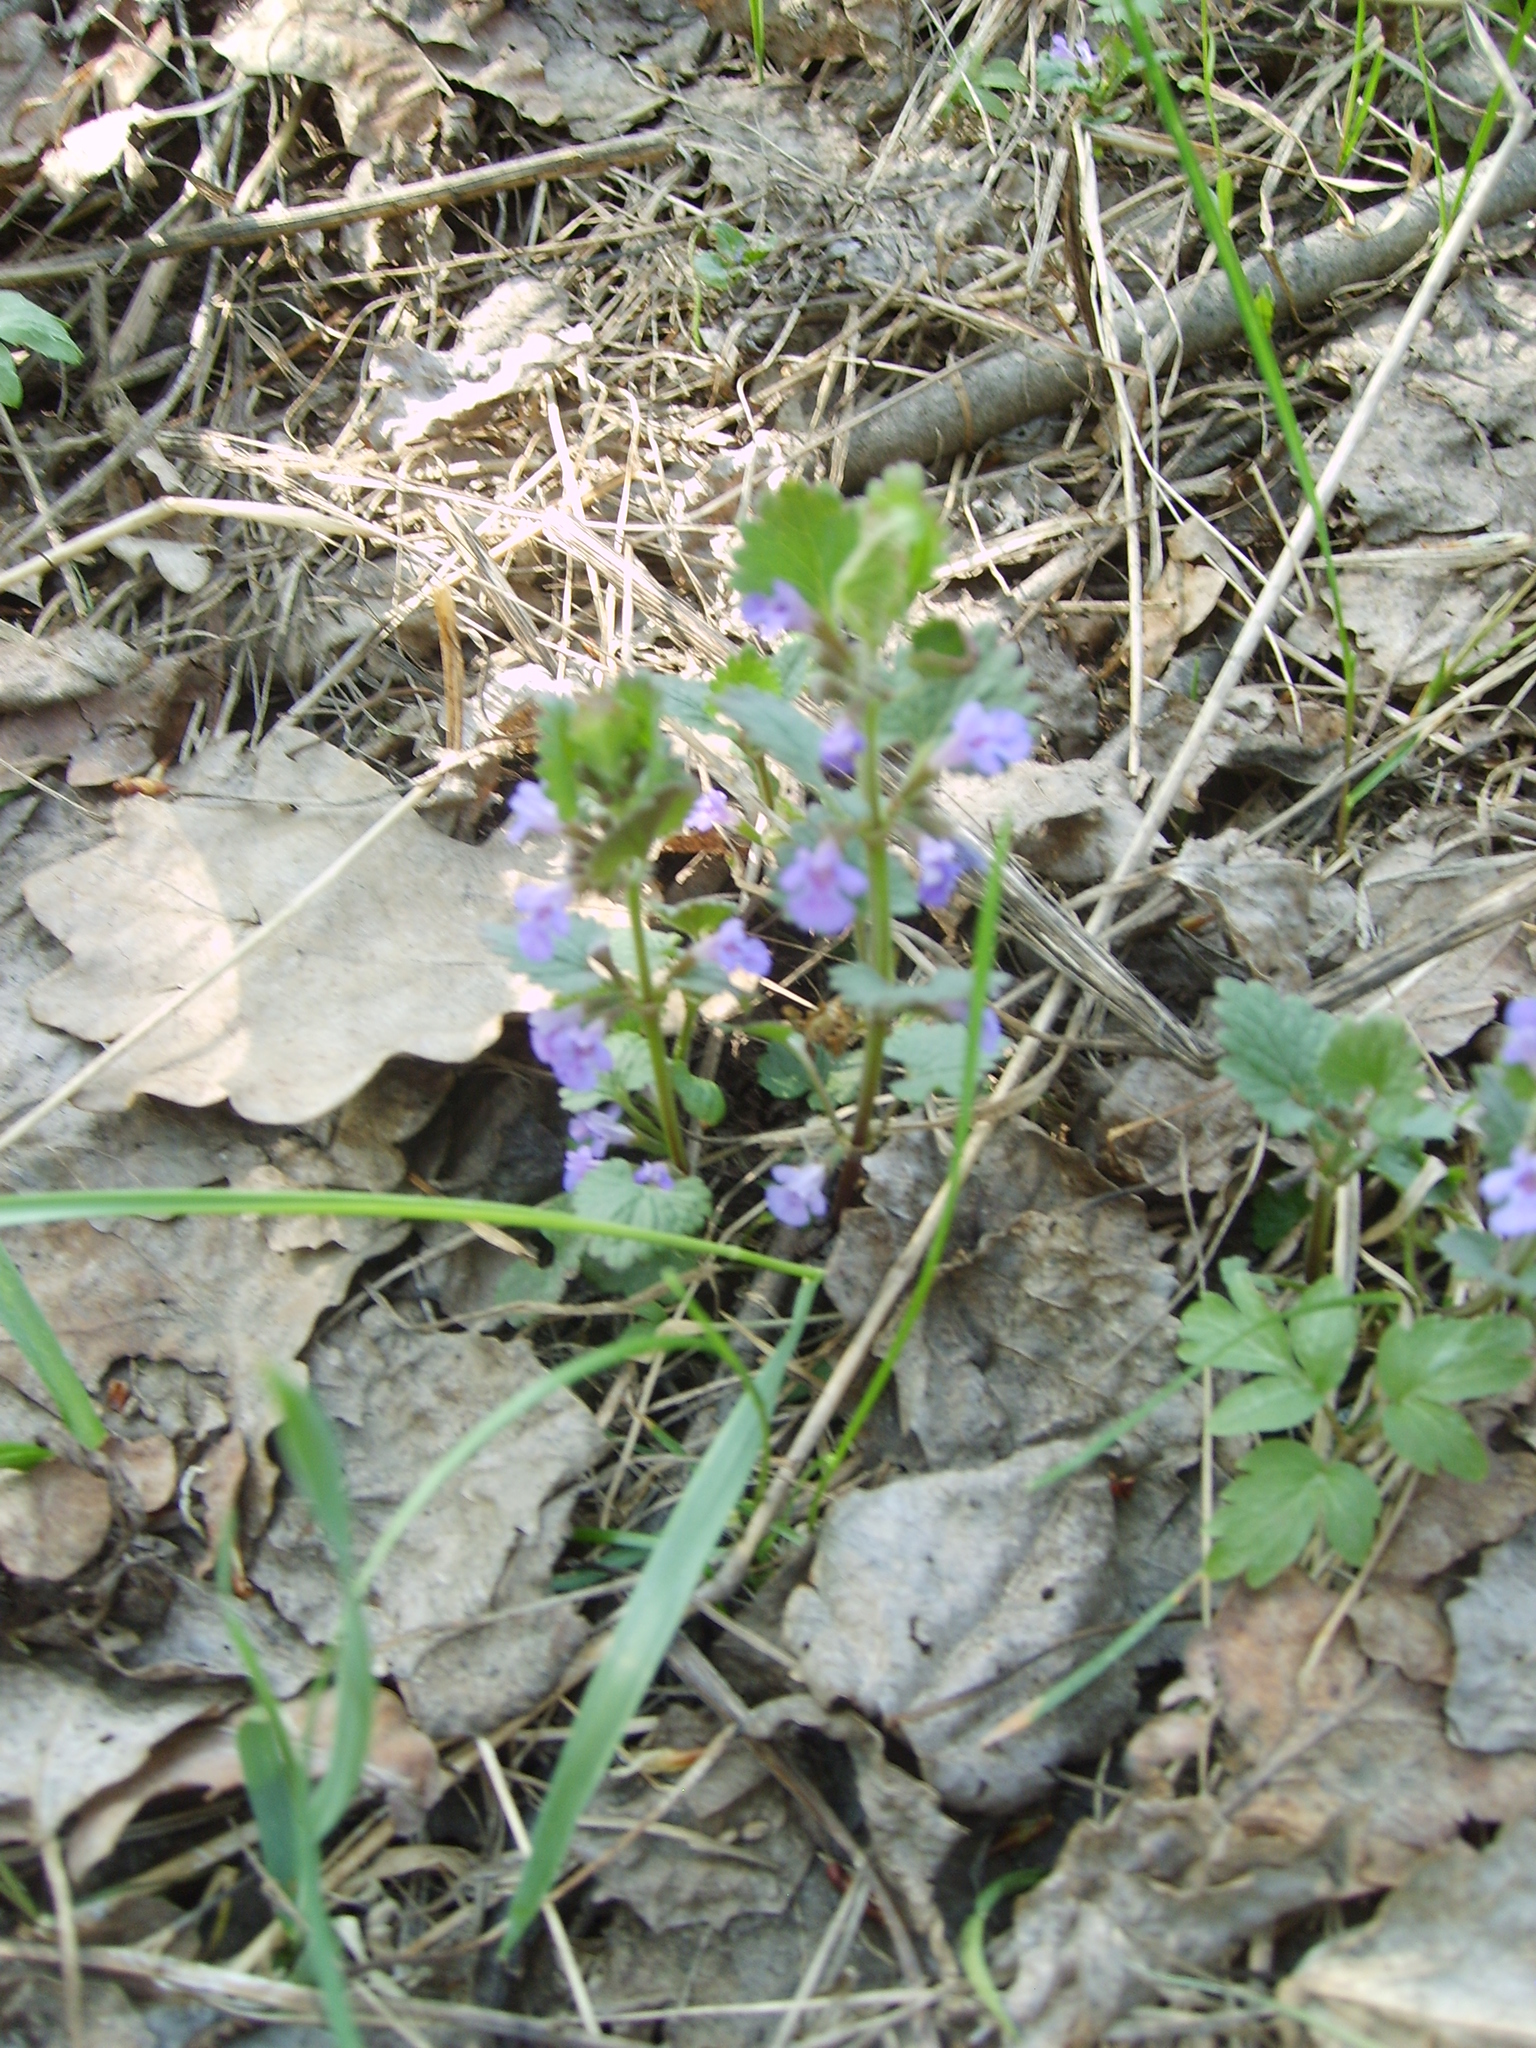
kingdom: Plantae
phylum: Tracheophyta
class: Magnoliopsida
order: Lamiales
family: Lamiaceae
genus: Glechoma
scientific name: Glechoma hederacea
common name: Ground ivy
